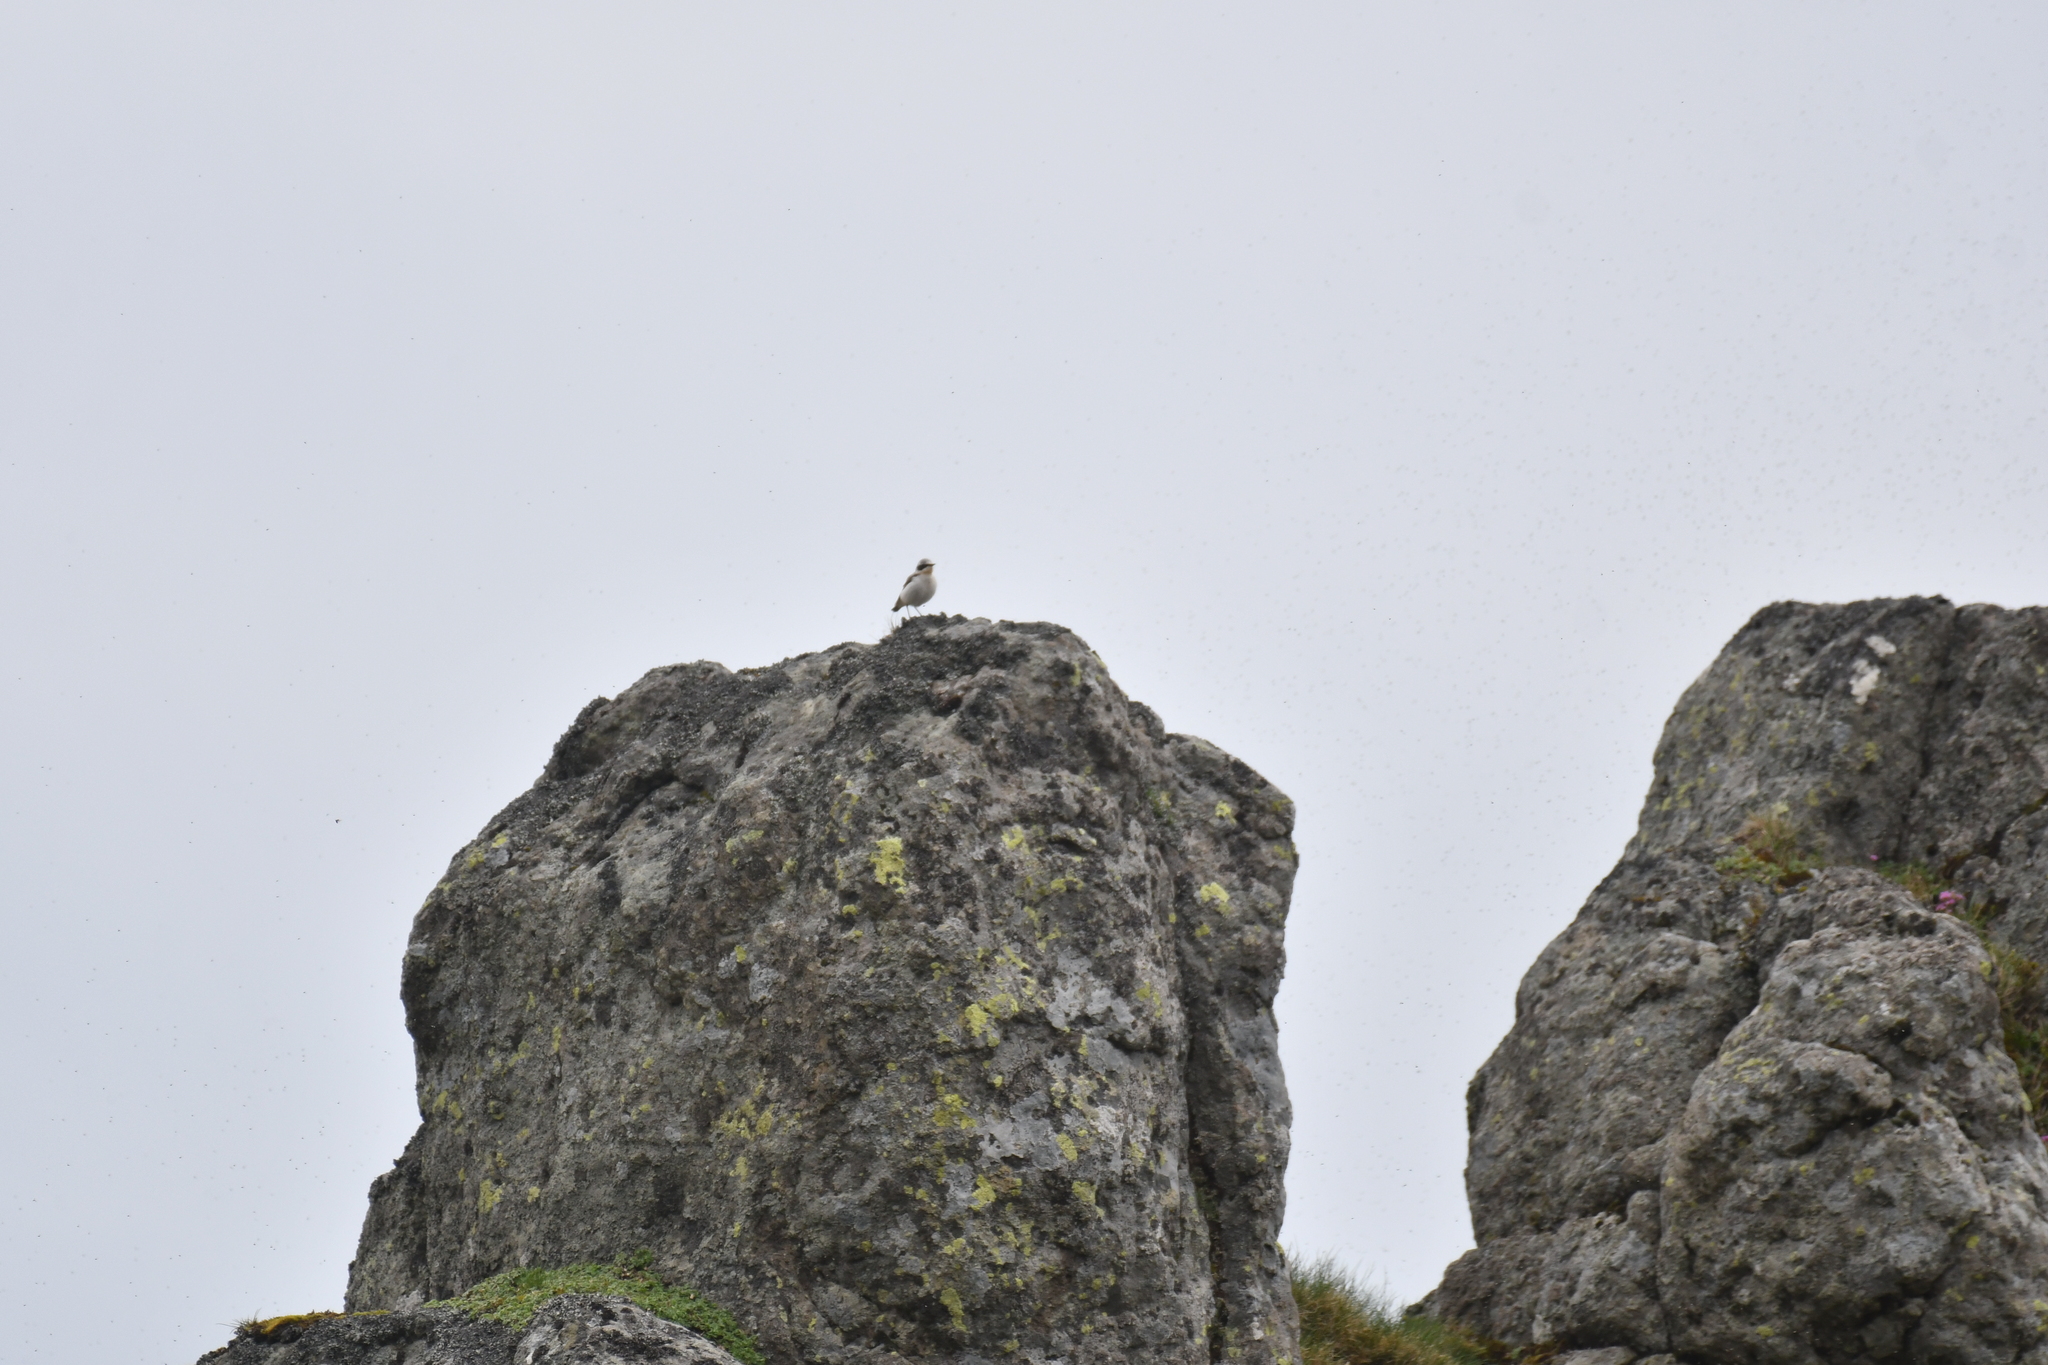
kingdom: Animalia
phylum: Chordata
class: Aves
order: Passeriformes
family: Muscicapidae
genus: Oenanthe
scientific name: Oenanthe oenanthe
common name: Northern wheatear
